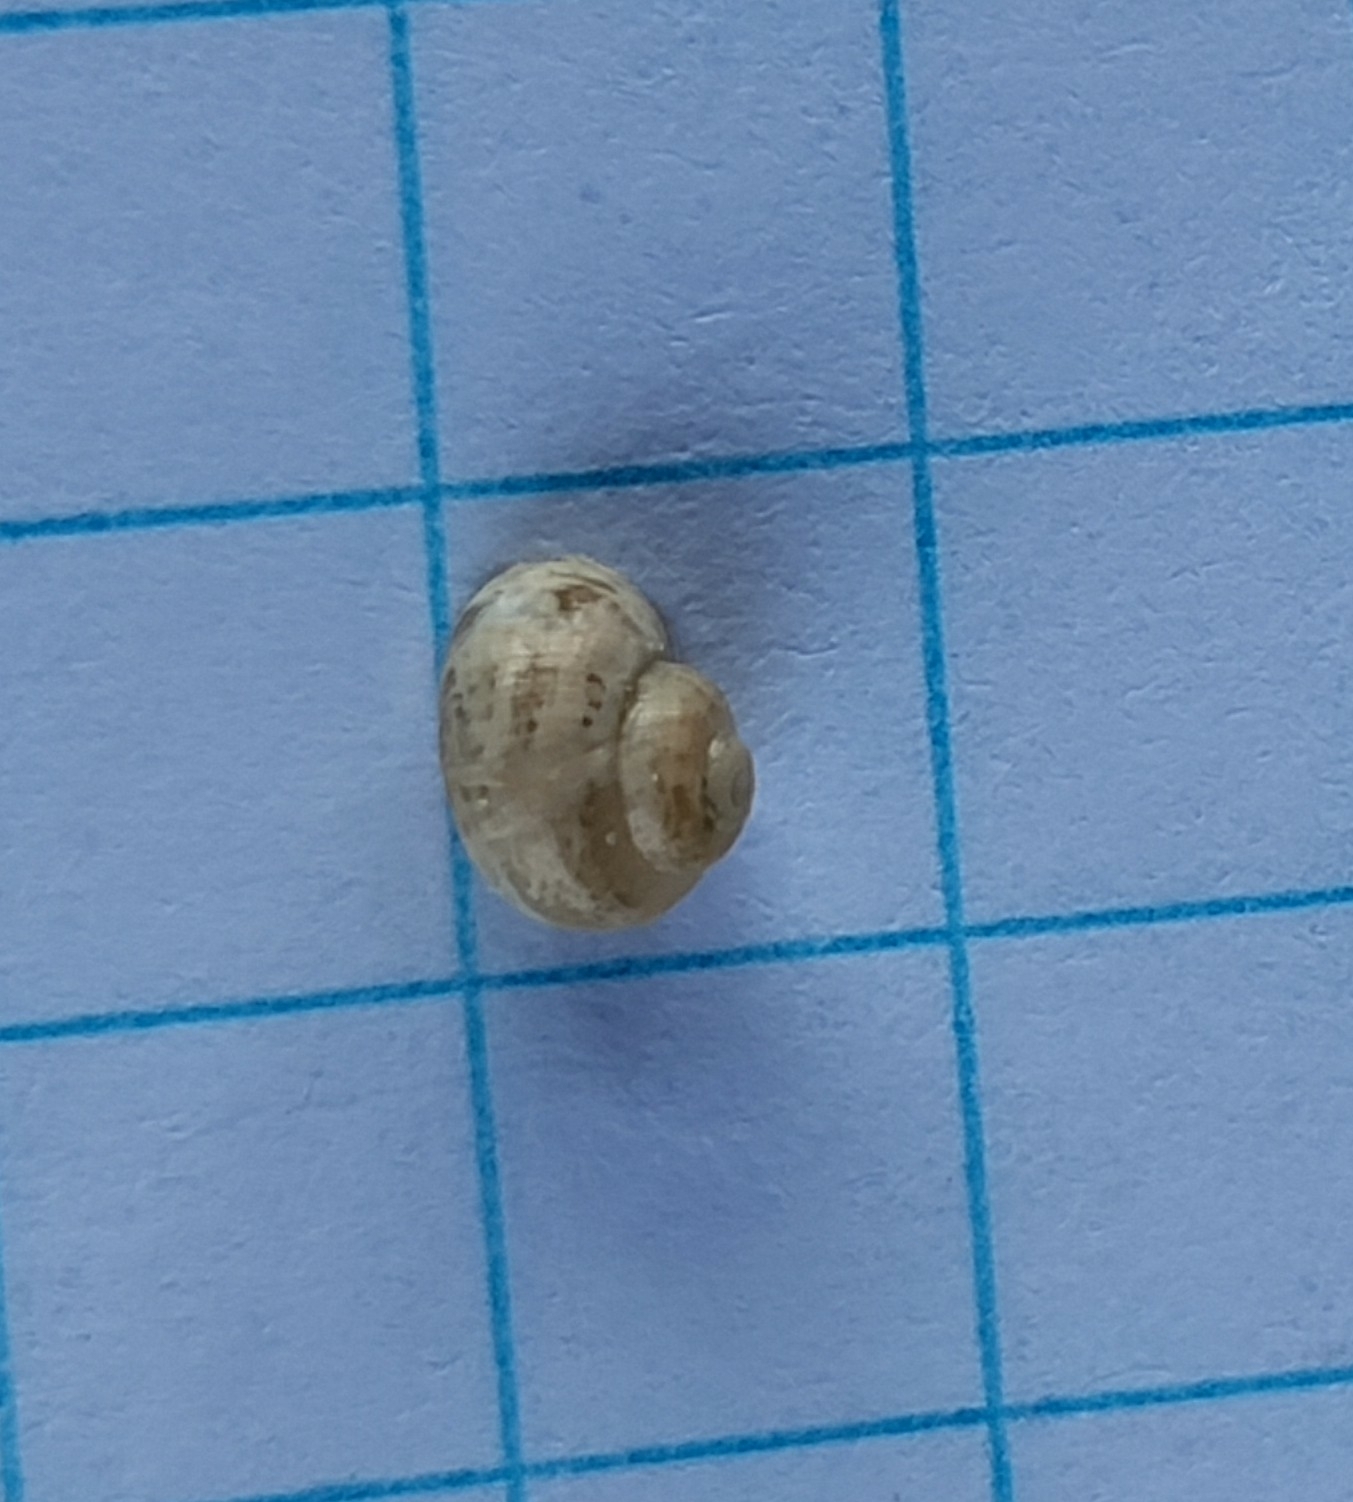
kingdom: Animalia
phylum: Mollusca
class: Gastropoda
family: Valvatidae
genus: Valvata
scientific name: Valvata piscinalis
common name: European valve snail
